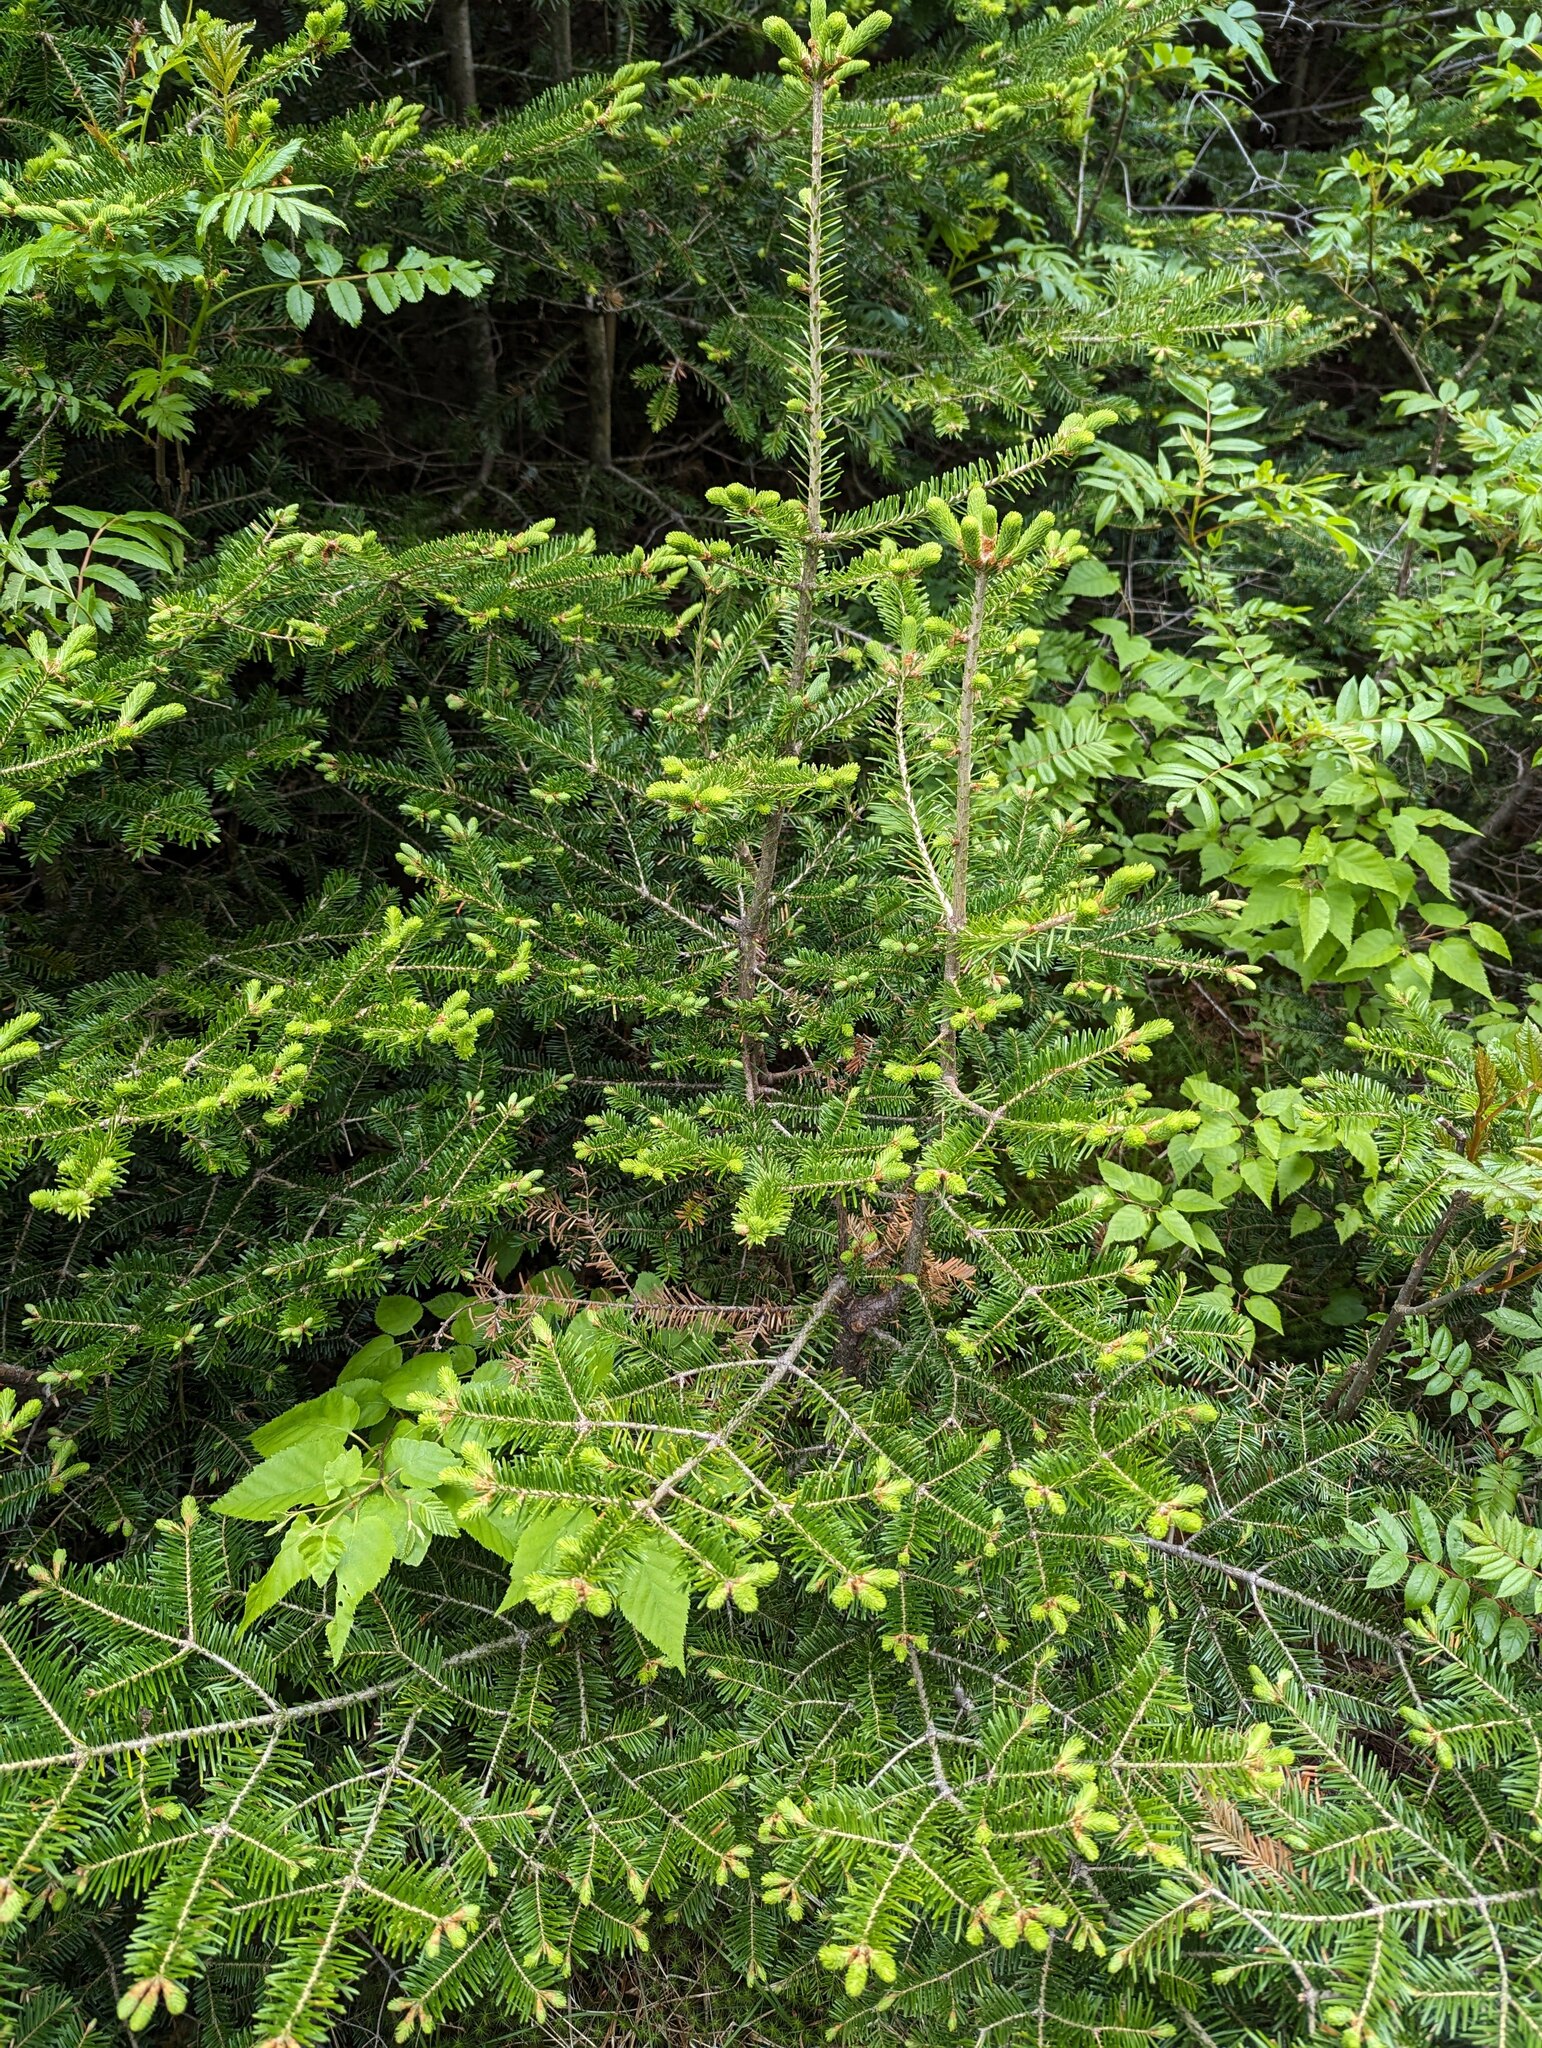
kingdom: Plantae
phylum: Tracheophyta
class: Pinopsida
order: Pinales
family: Pinaceae
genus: Abies
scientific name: Abies balsamea
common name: Balsam fir
